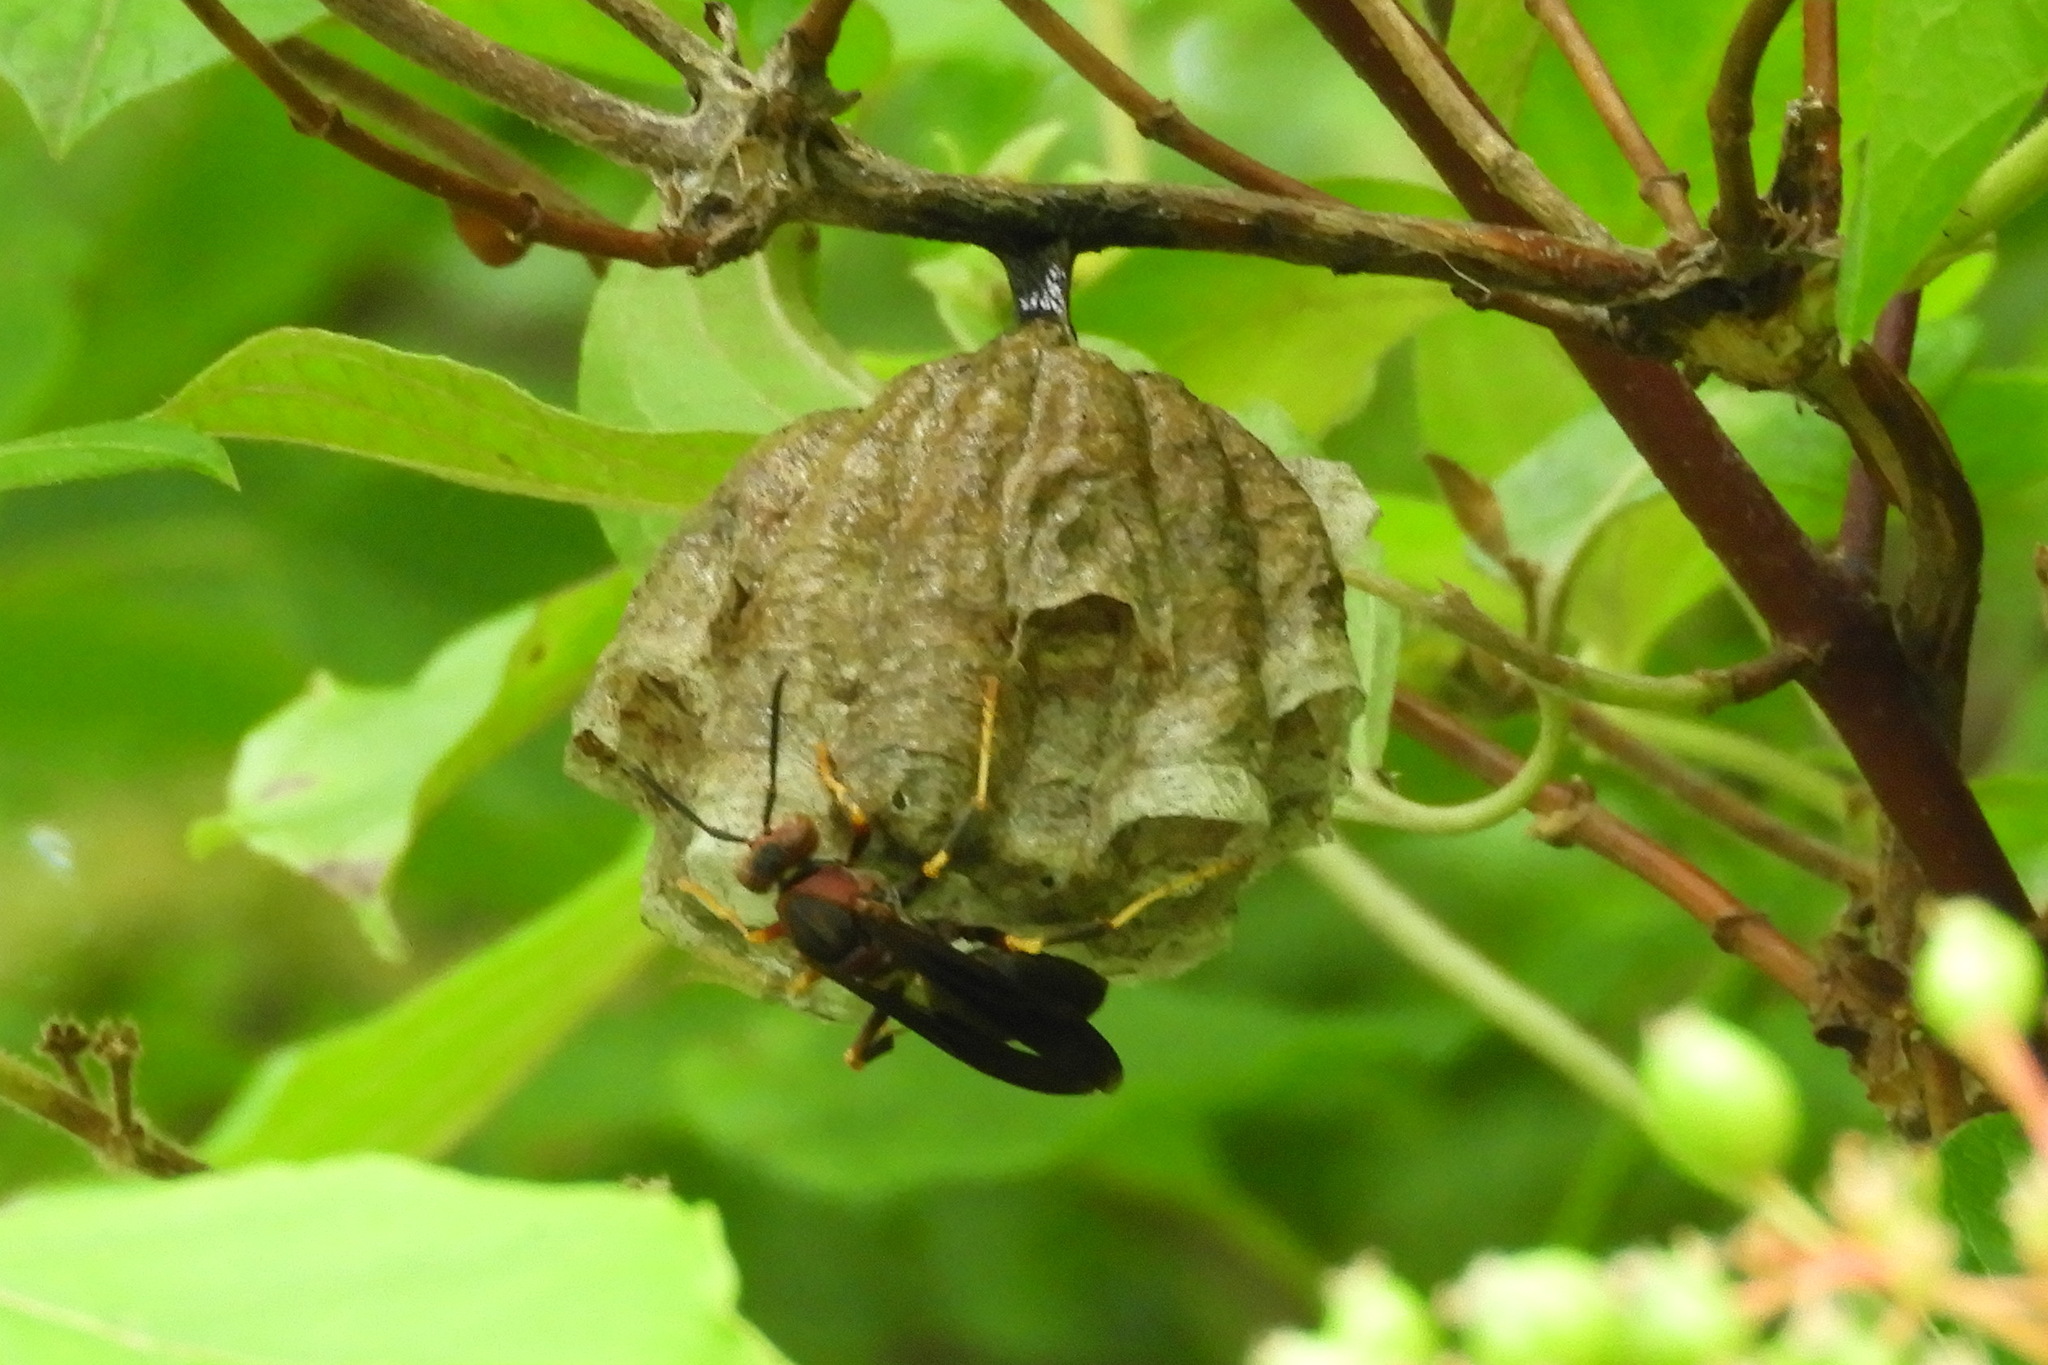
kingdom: Animalia
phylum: Arthropoda
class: Insecta
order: Hymenoptera
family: Eumenidae
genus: Polistes
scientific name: Polistes metricus
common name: Metric paper wasp
